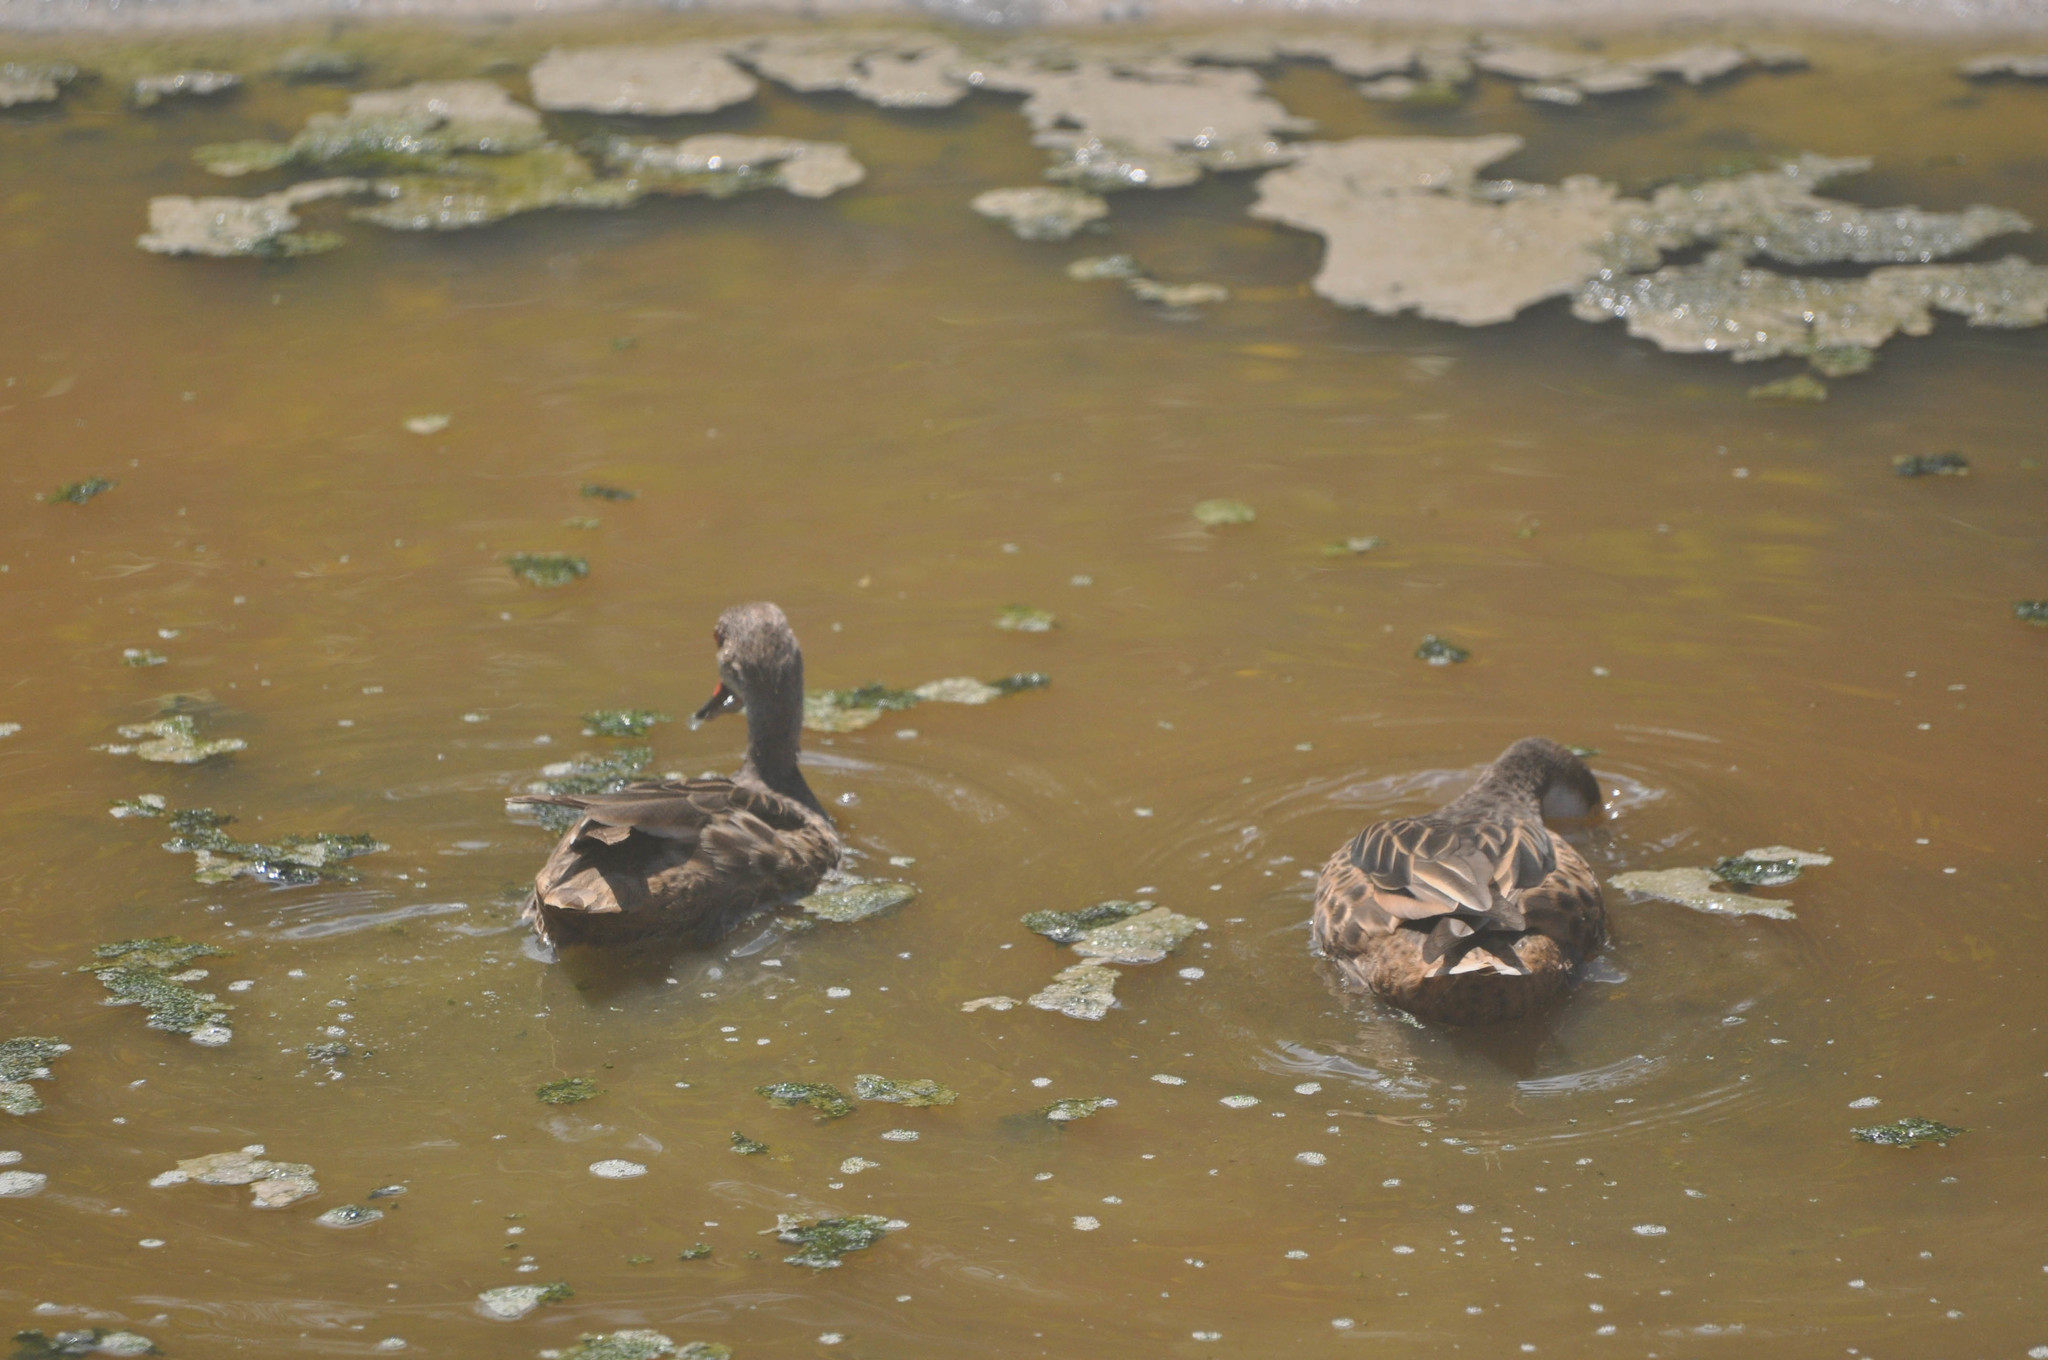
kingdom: Animalia
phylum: Chordata
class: Aves
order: Anseriformes
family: Anatidae
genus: Anas
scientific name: Anas bahamensis
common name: White-cheeked pintail
